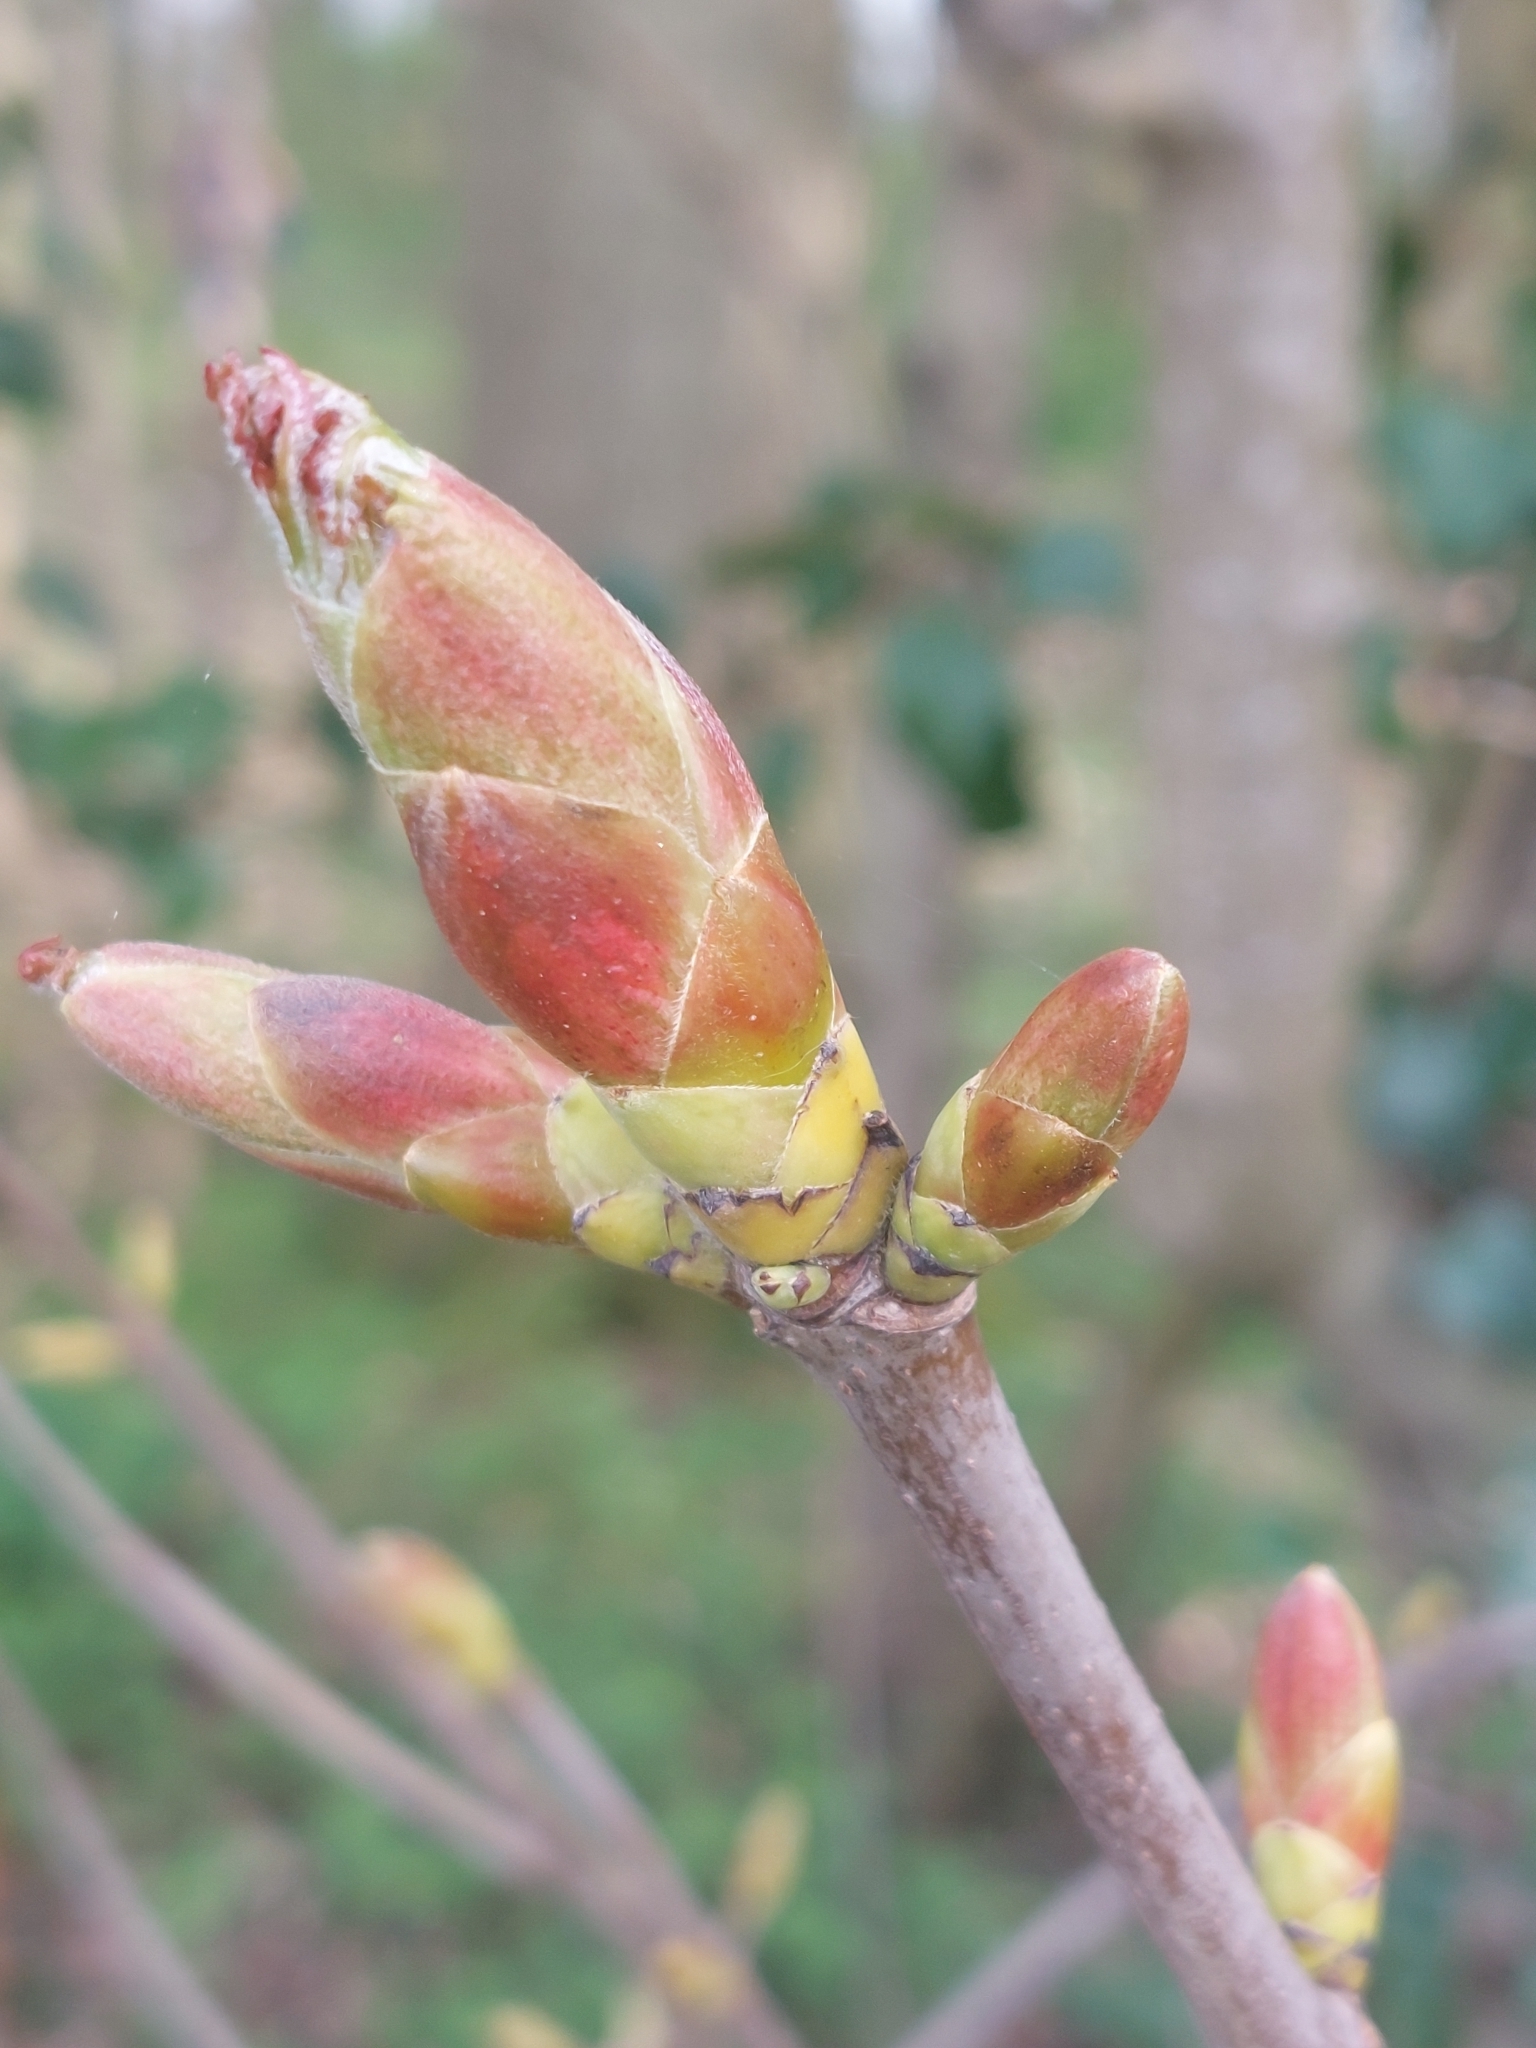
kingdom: Plantae
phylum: Tracheophyta
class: Magnoliopsida
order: Sapindales
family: Sapindaceae
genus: Acer
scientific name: Acer pseudoplatanus
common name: Sycamore
